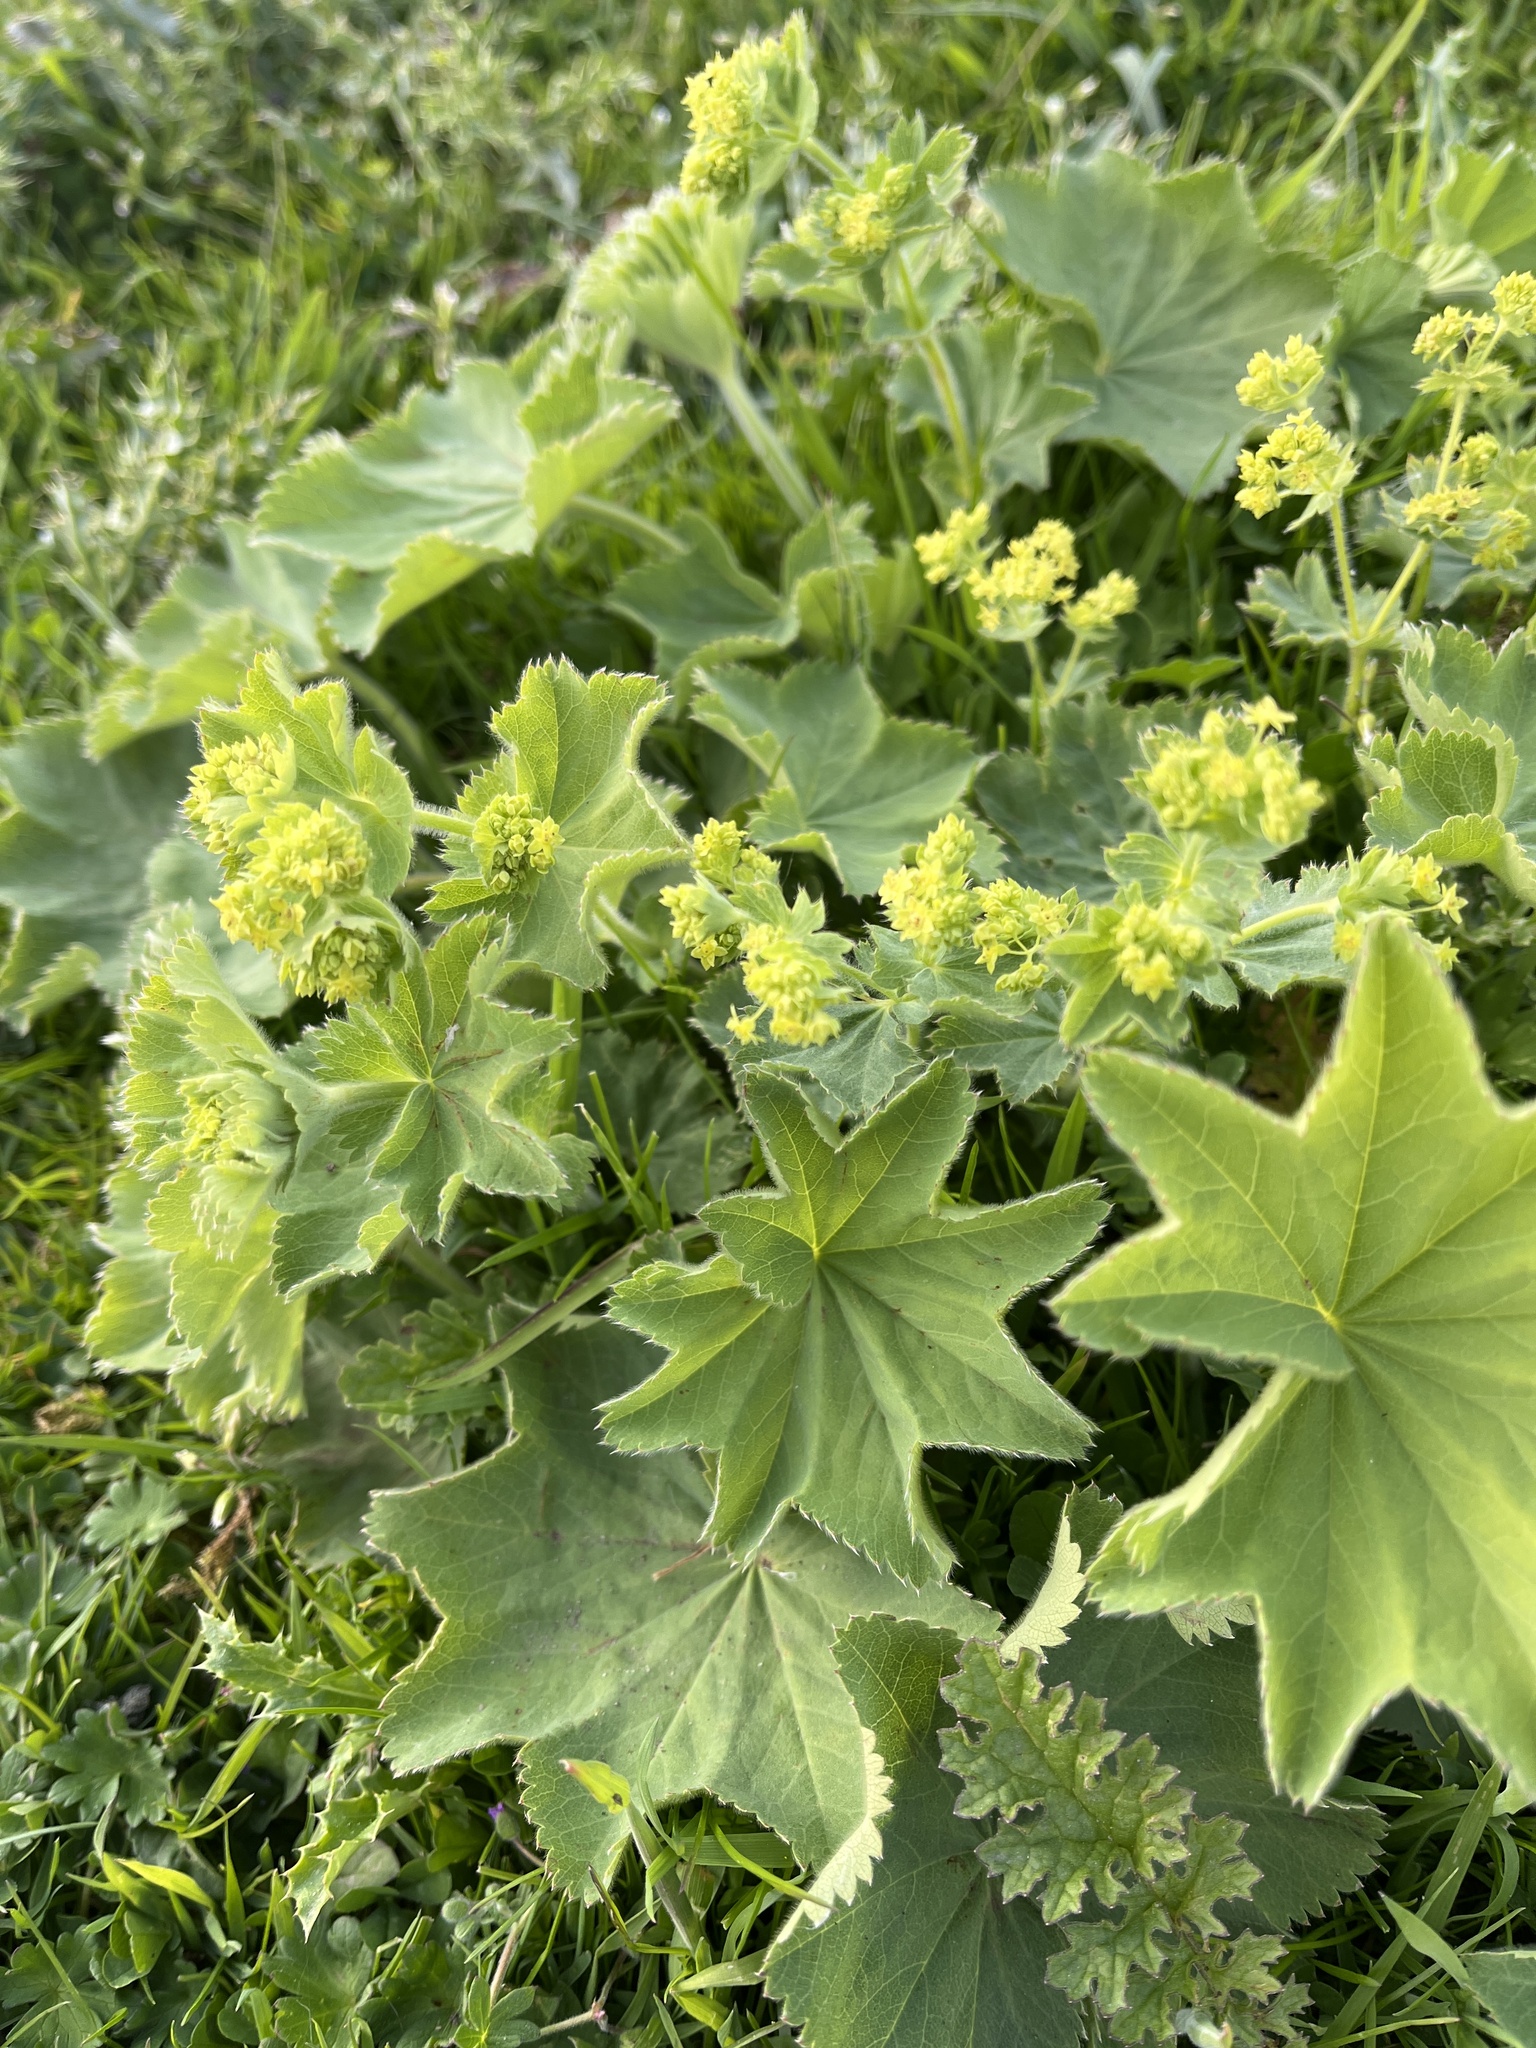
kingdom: Plantae
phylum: Tracheophyta
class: Magnoliopsida
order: Rosales
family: Rosaceae
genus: Alchemilla
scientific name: Alchemilla mollis
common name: Lady's-mantle
